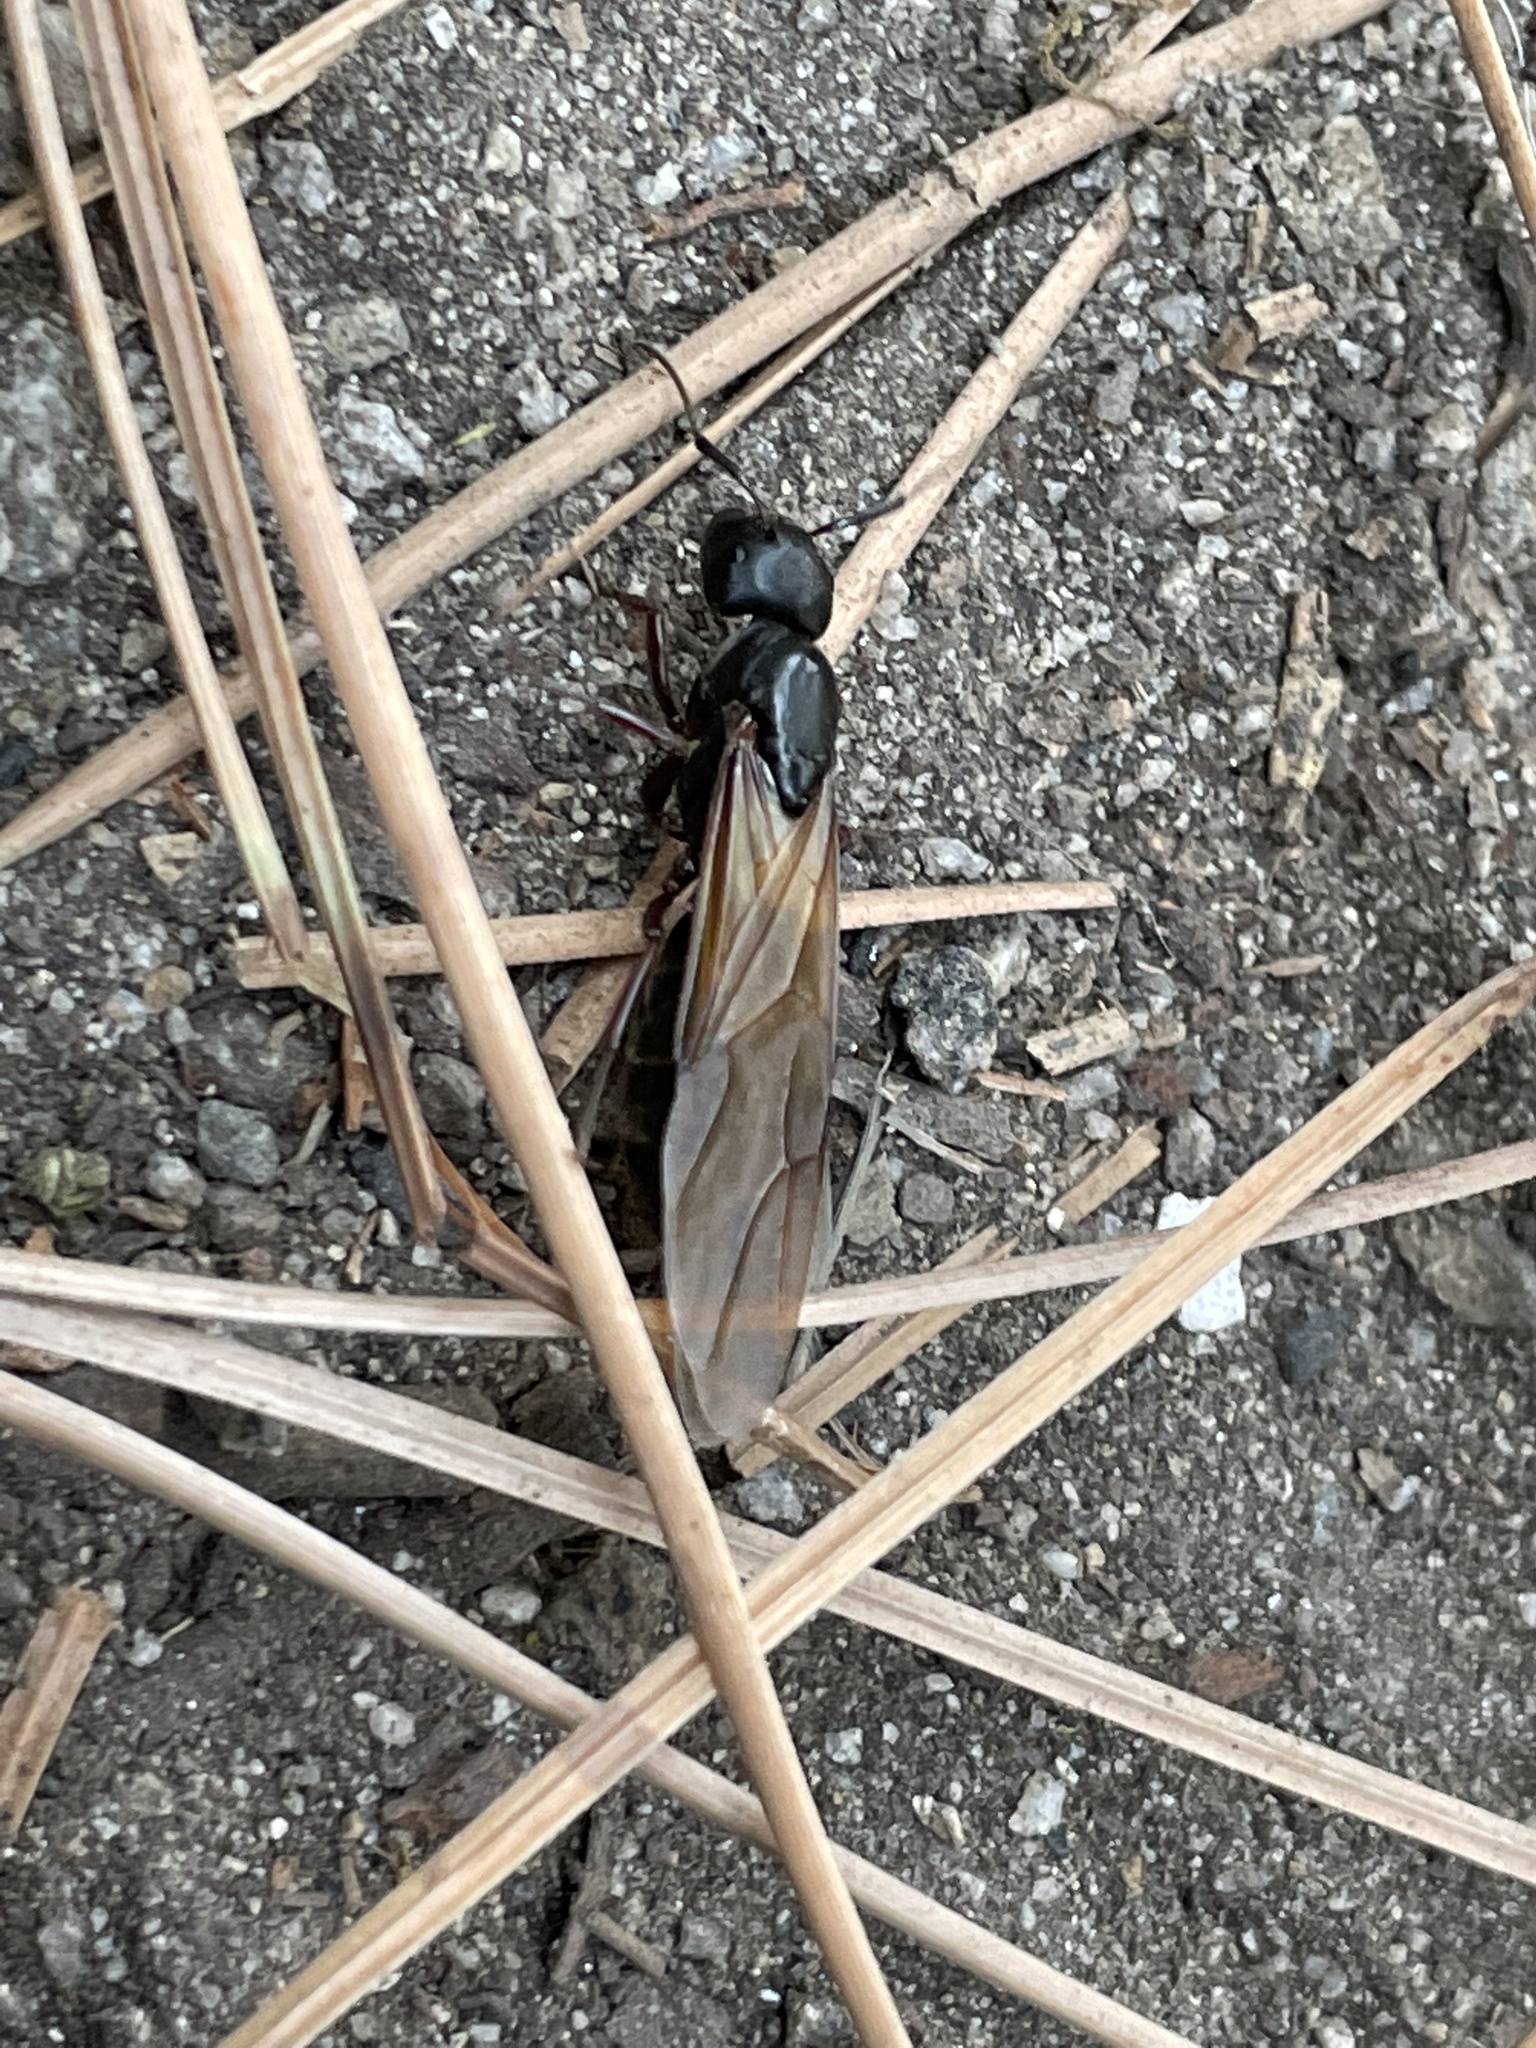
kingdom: Animalia
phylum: Arthropoda
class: Insecta
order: Hymenoptera
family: Formicidae
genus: Camponotus
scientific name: Camponotus modoc
